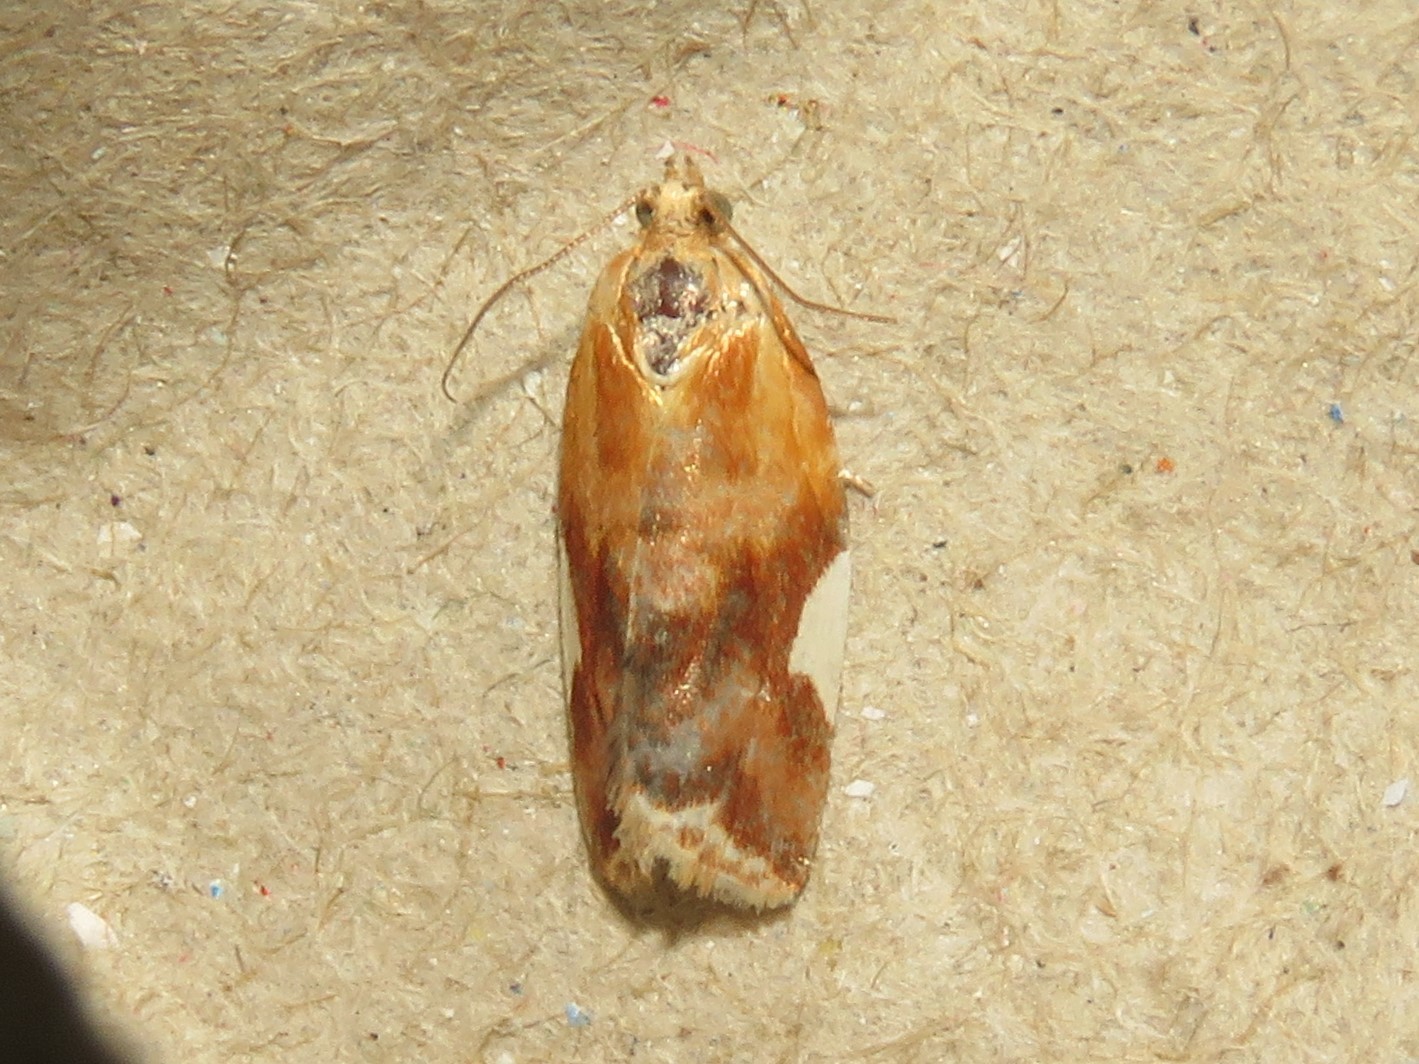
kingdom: Animalia
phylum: Arthropoda
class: Insecta
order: Lepidoptera
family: Tortricidae
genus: Clepsis
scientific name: Clepsis persicana
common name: White triangle tortrix
